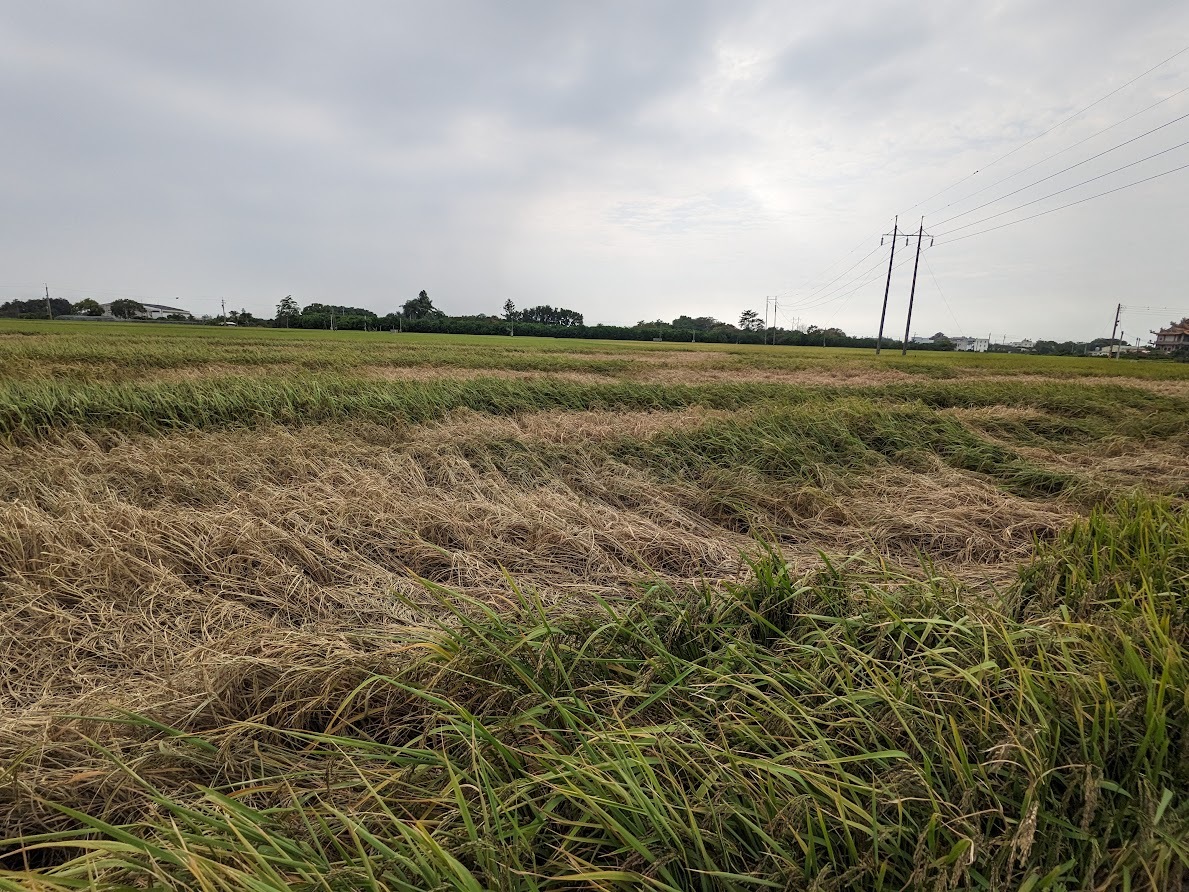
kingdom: Animalia
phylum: Arthropoda
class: Insecta
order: Hemiptera
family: Delphacidae
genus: Nilaparvata
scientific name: Nilaparvata lugens
